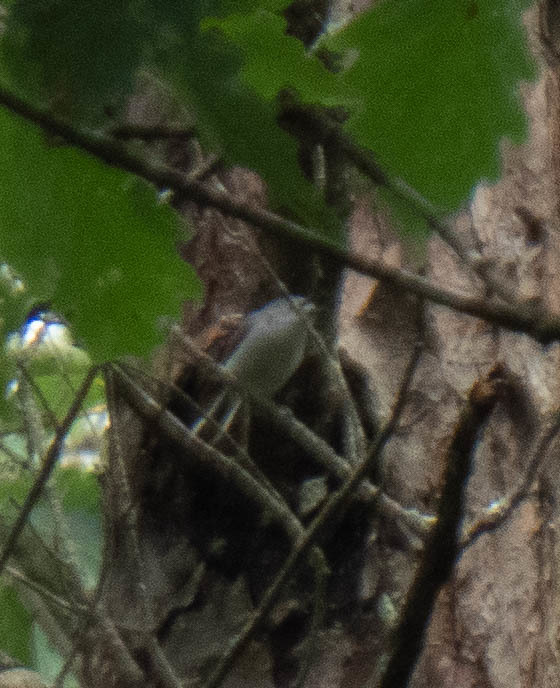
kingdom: Animalia
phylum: Chordata
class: Aves
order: Passeriformes
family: Polioptilidae
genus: Polioptila
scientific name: Polioptila caerulea
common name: Blue-gray gnatcatcher
